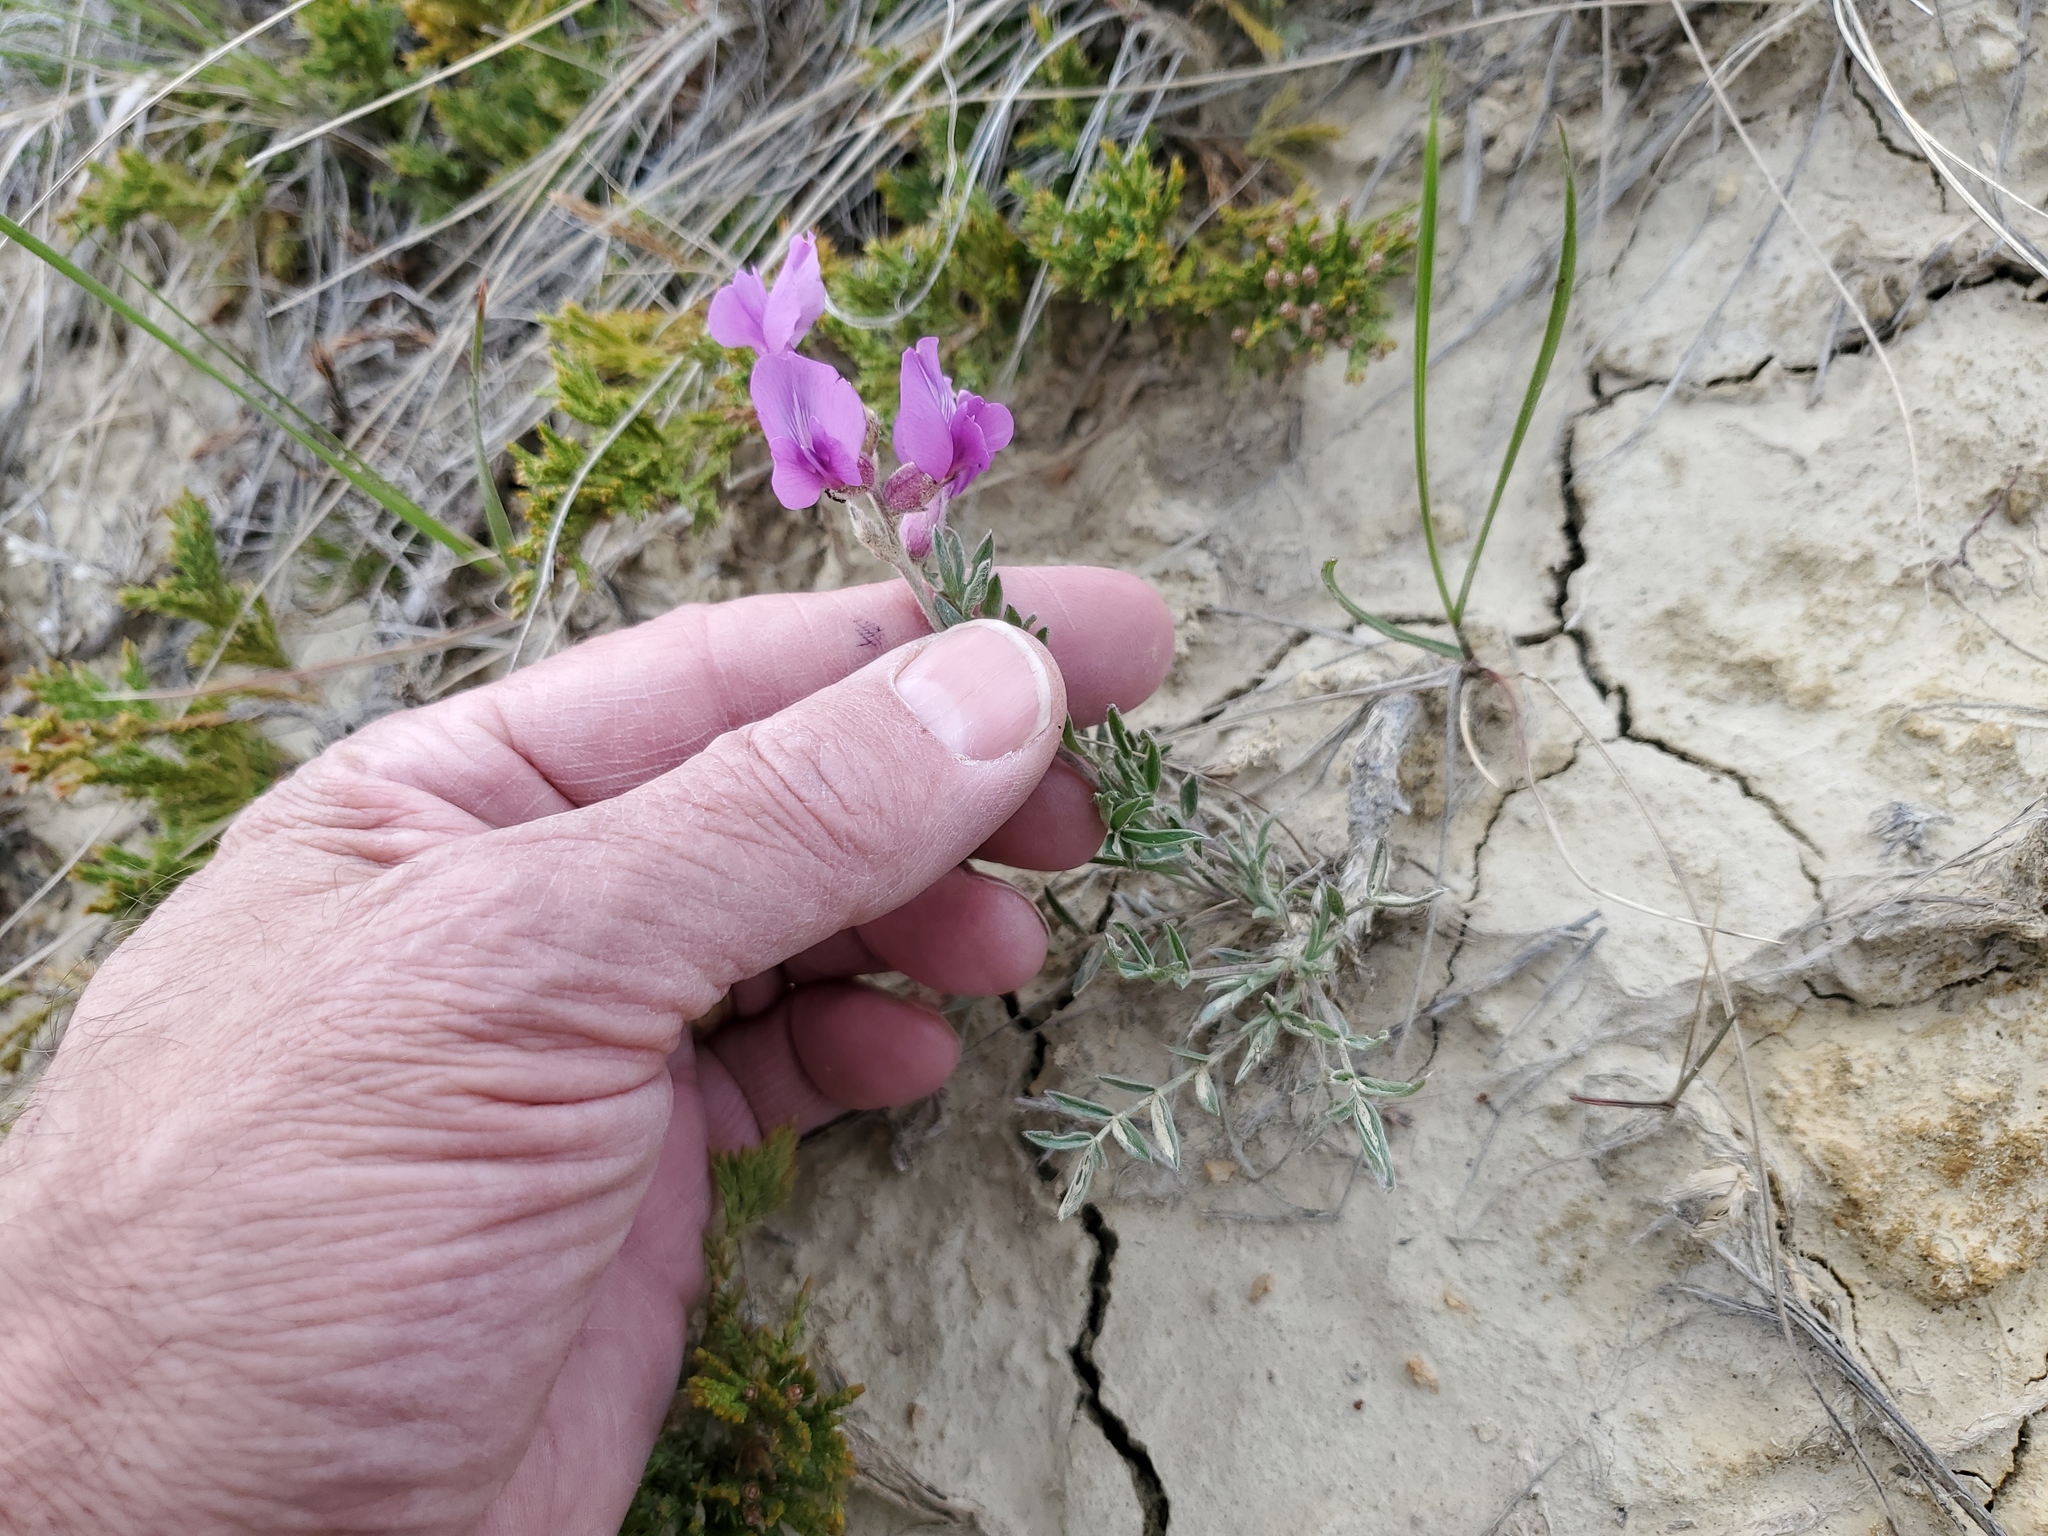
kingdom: Plantae
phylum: Tracheophyta
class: Magnoliopsida
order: Fabales
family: Fabaceae
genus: Oxytropis
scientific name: Oxytropis lambertii
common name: Purple locoweed
